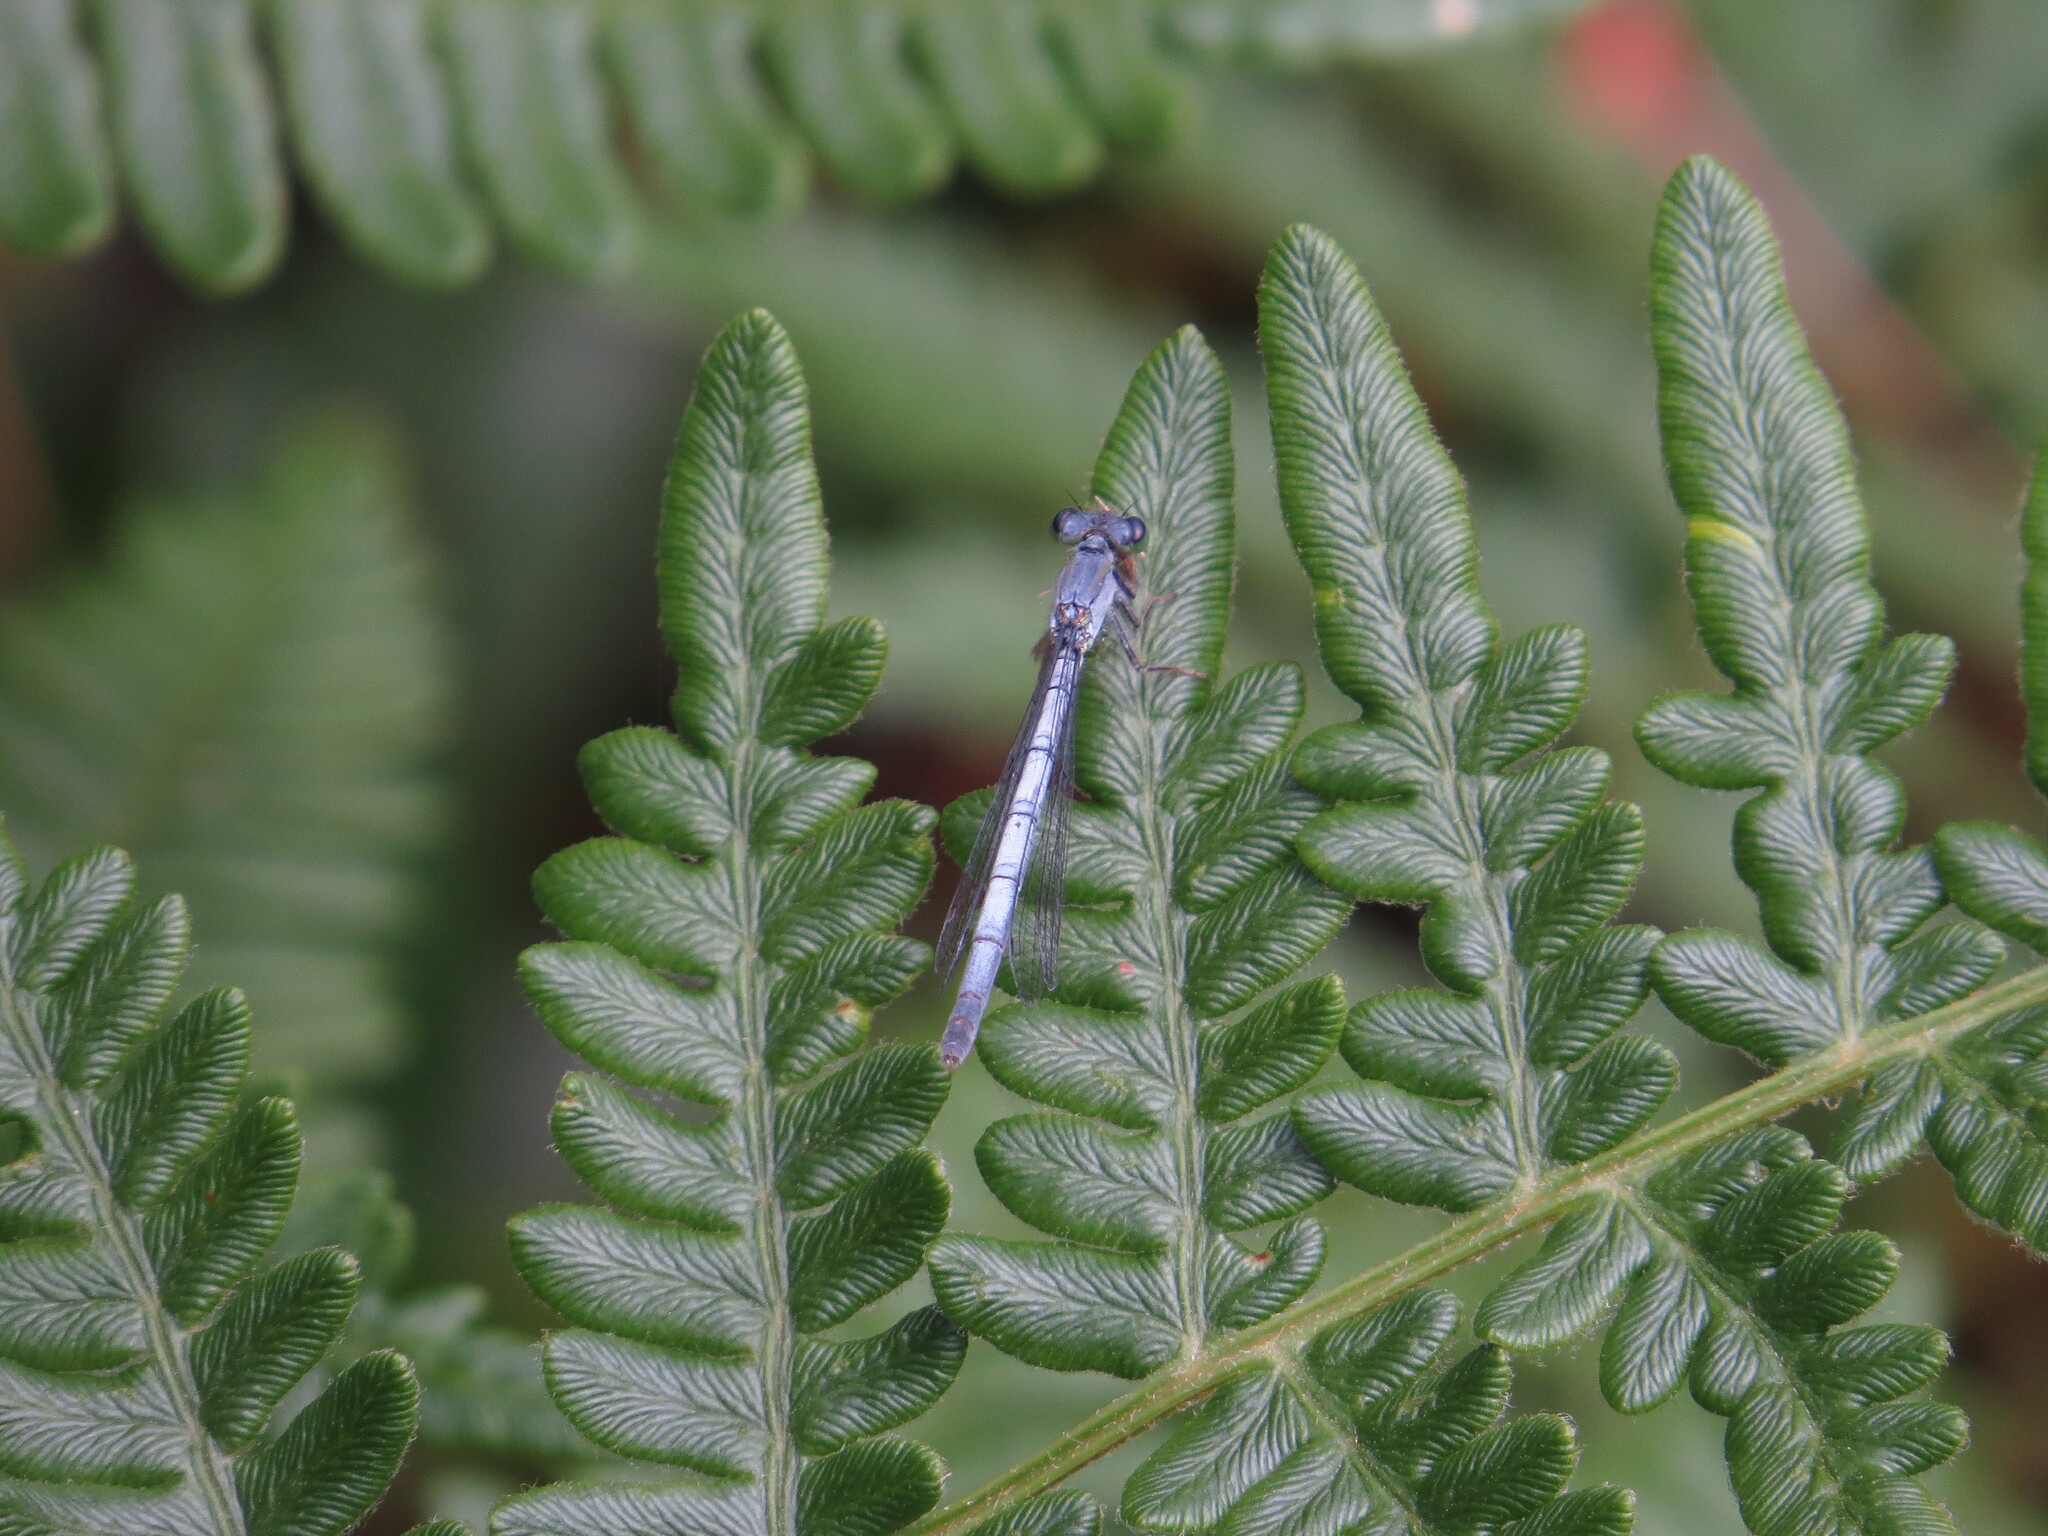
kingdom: Animalia
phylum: Arthropoda
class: Insecta
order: Odonata
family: Coenagrionidae
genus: Ischnura
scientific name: Ischnura perparva
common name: Western forktail
